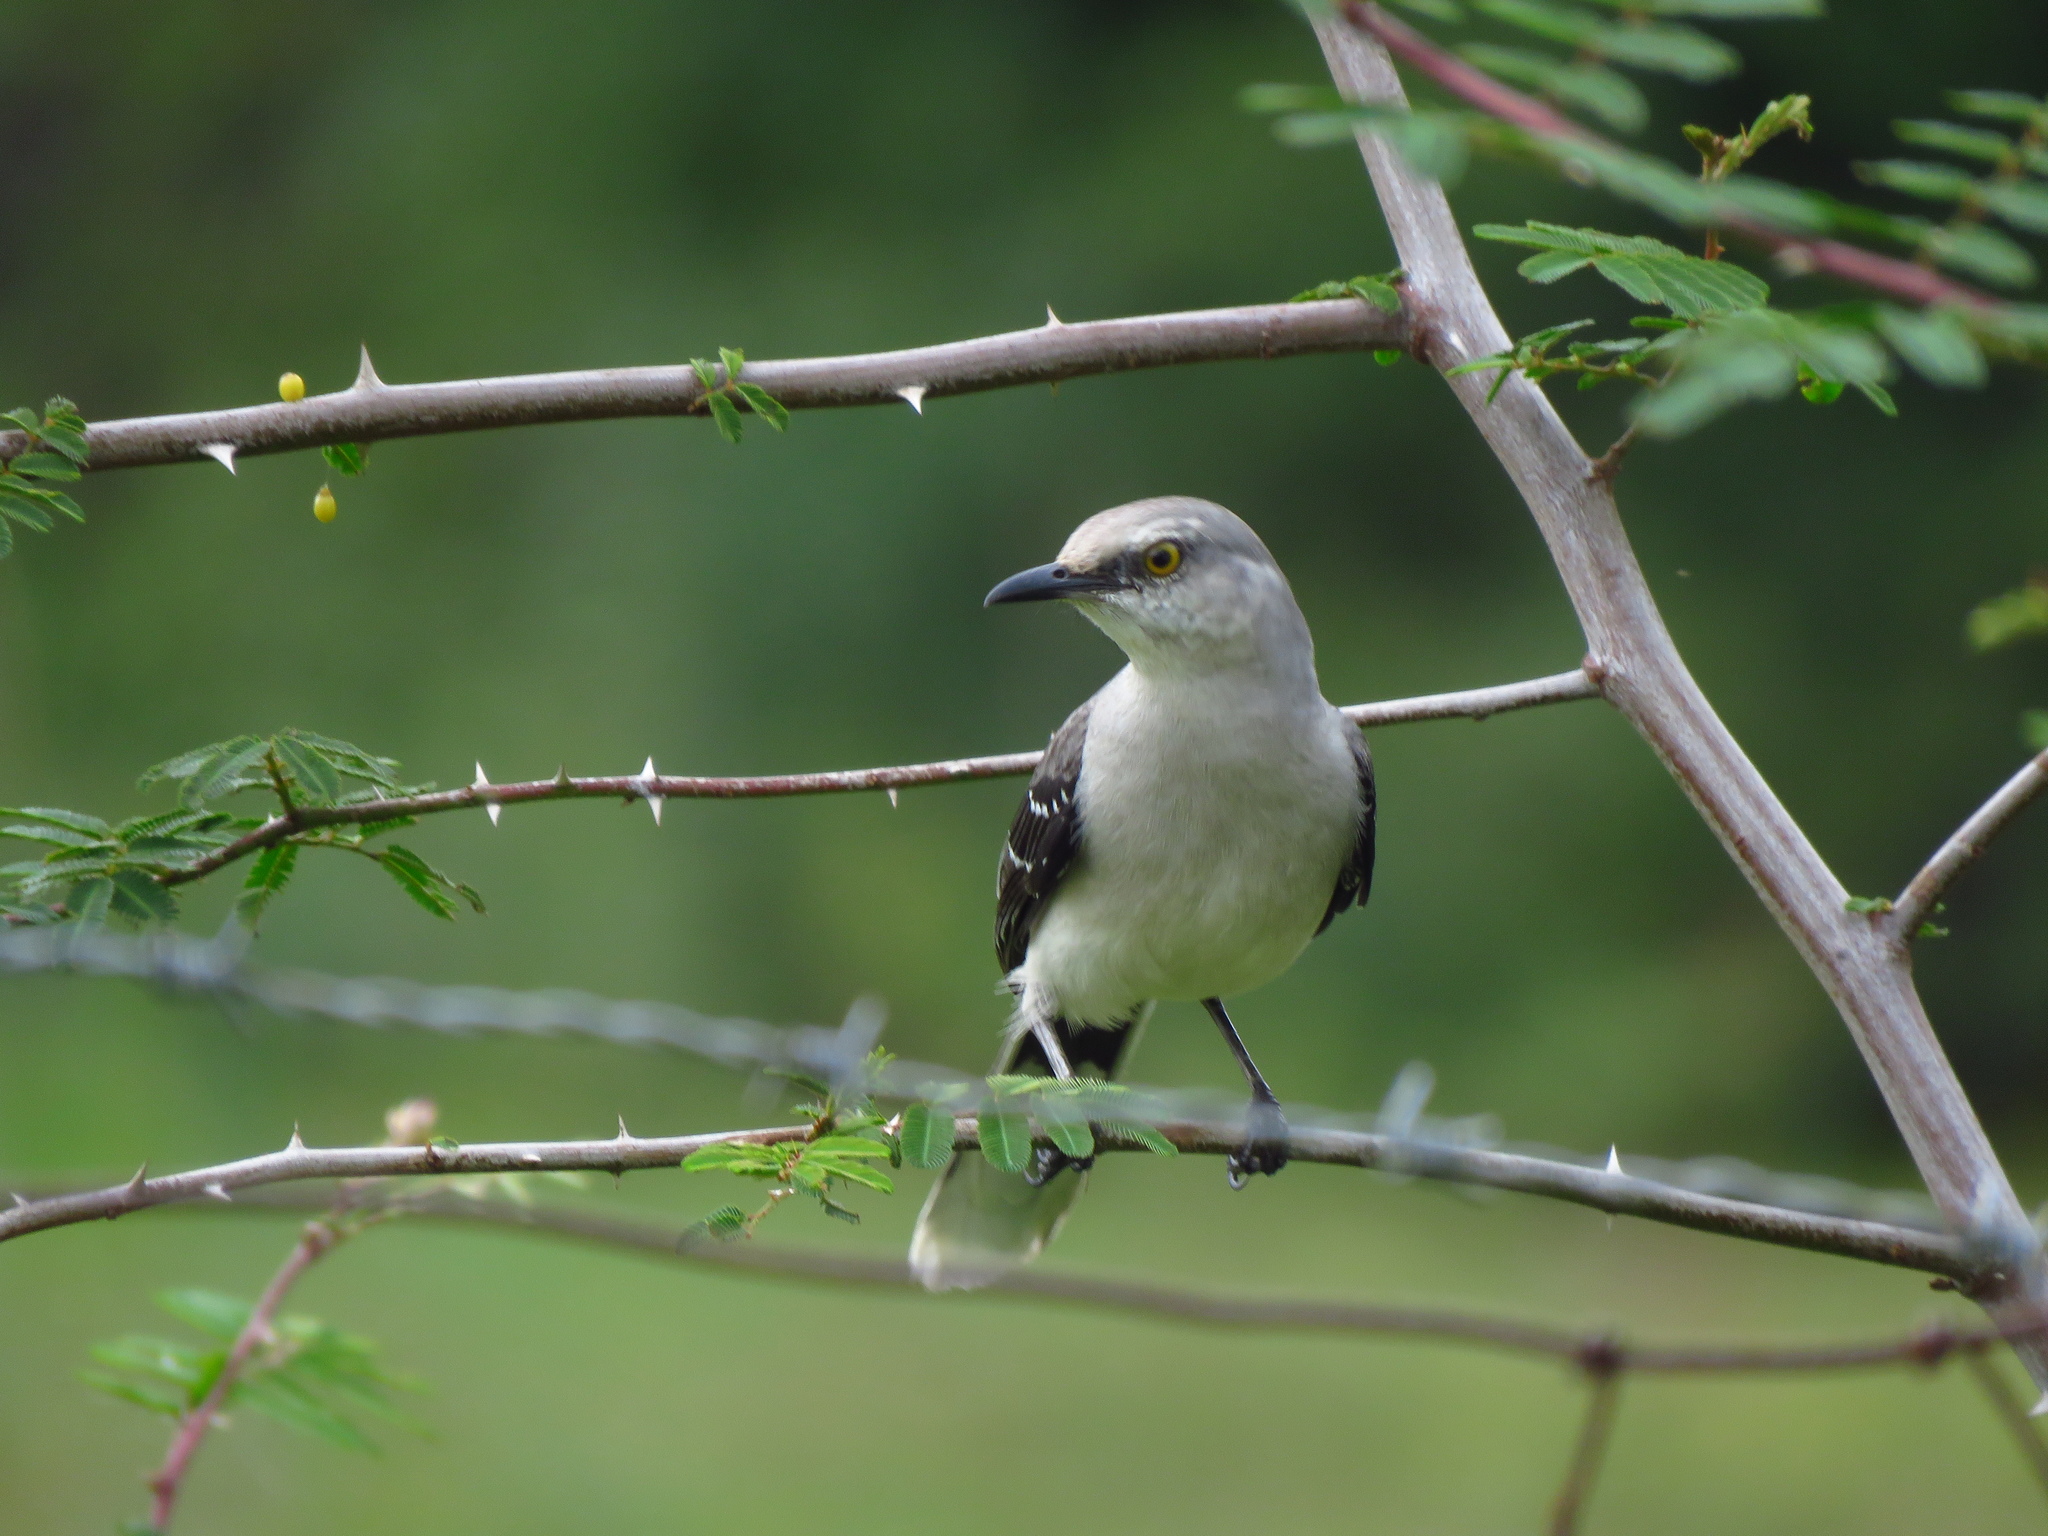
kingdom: Animalia
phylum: Chordata
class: Aves
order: Passeriformes
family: Mimidae
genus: Mimus
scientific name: Mimus gilvus
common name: Tropical mockingbird
